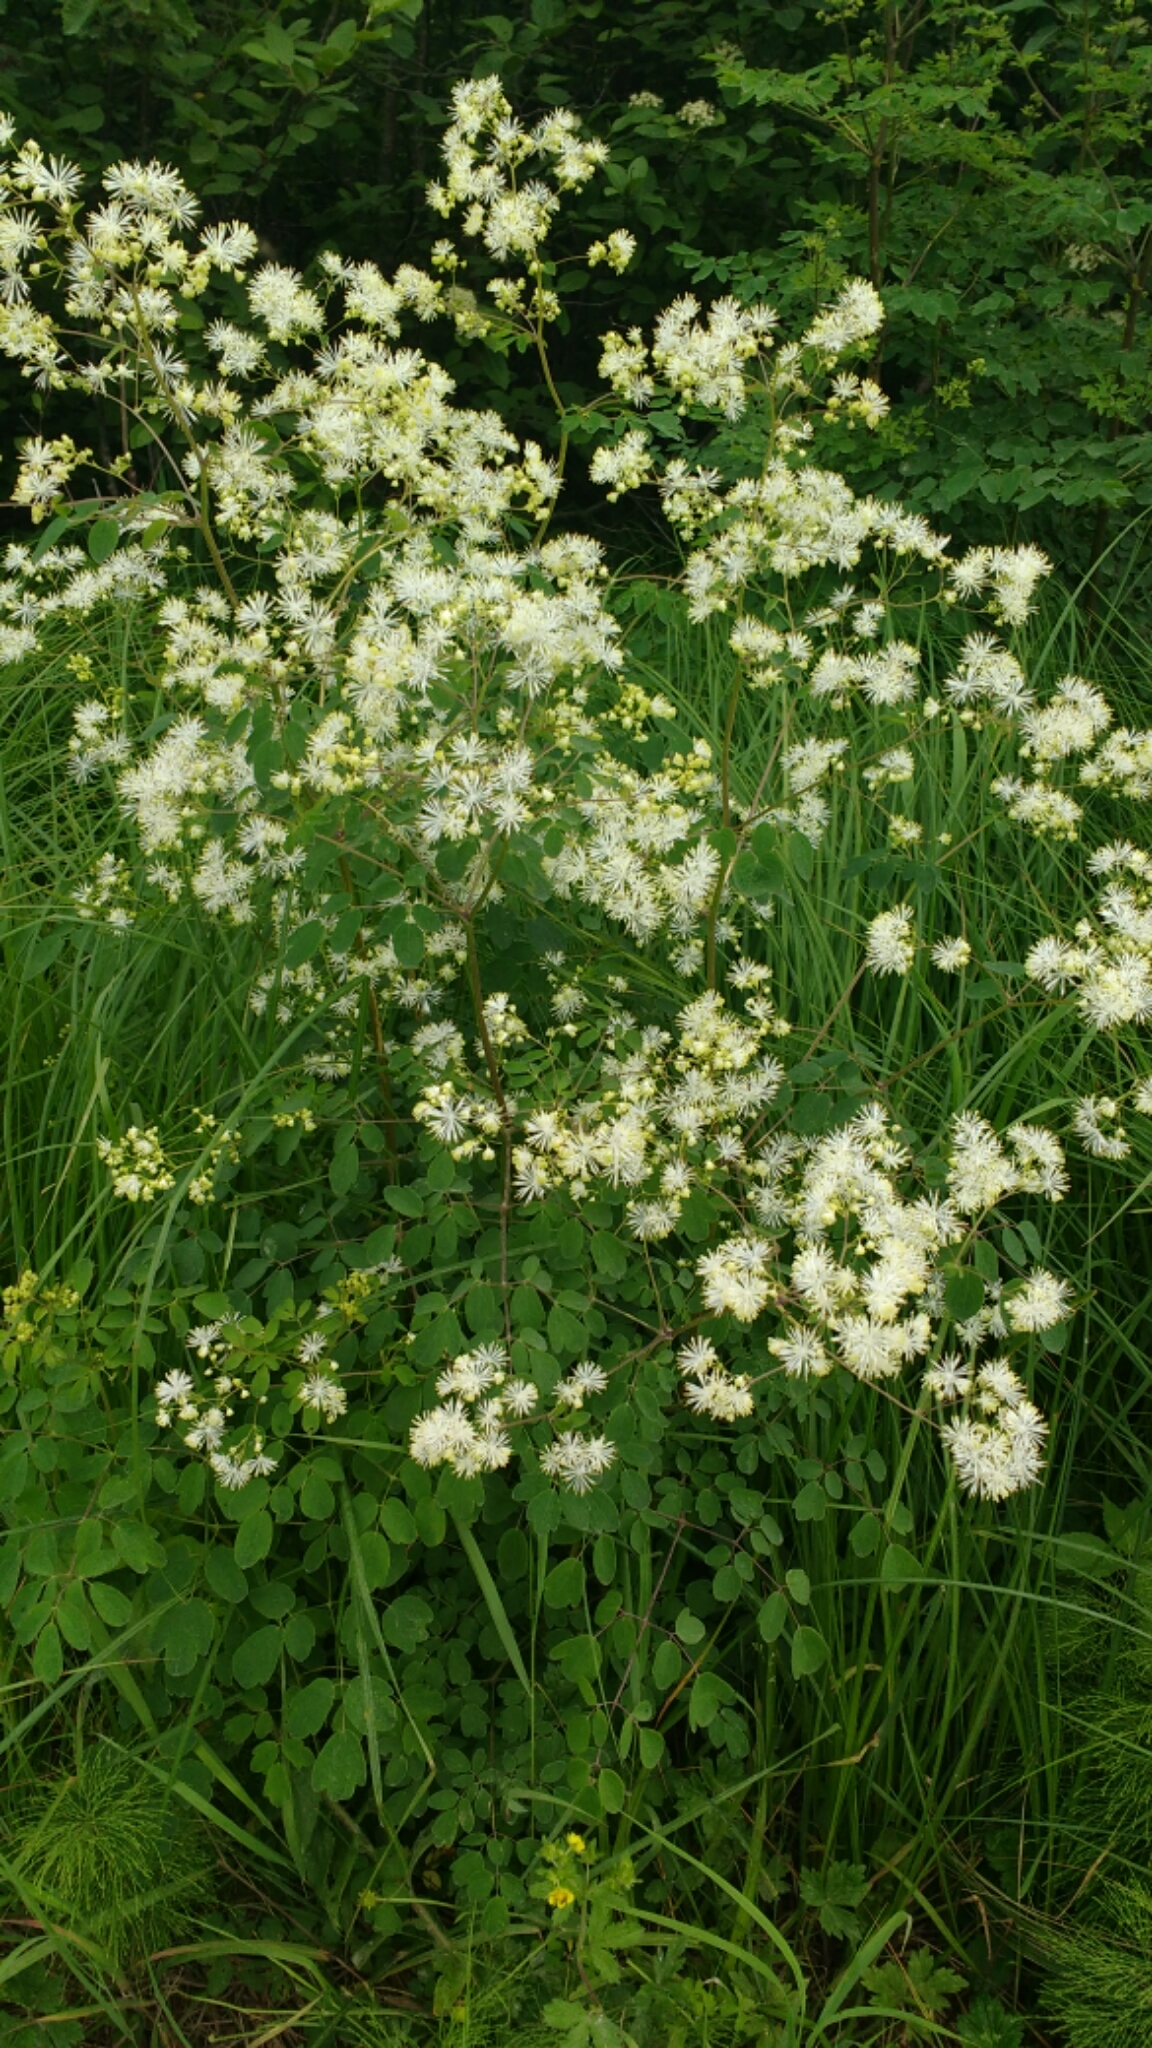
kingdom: Plantae
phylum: Tracheophyta
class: Magnoliopsida
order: Ranunculales
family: Ranunculaceae
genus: Thalictrum
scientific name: Thalictrum pubescens
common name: King-of-the-meadow
